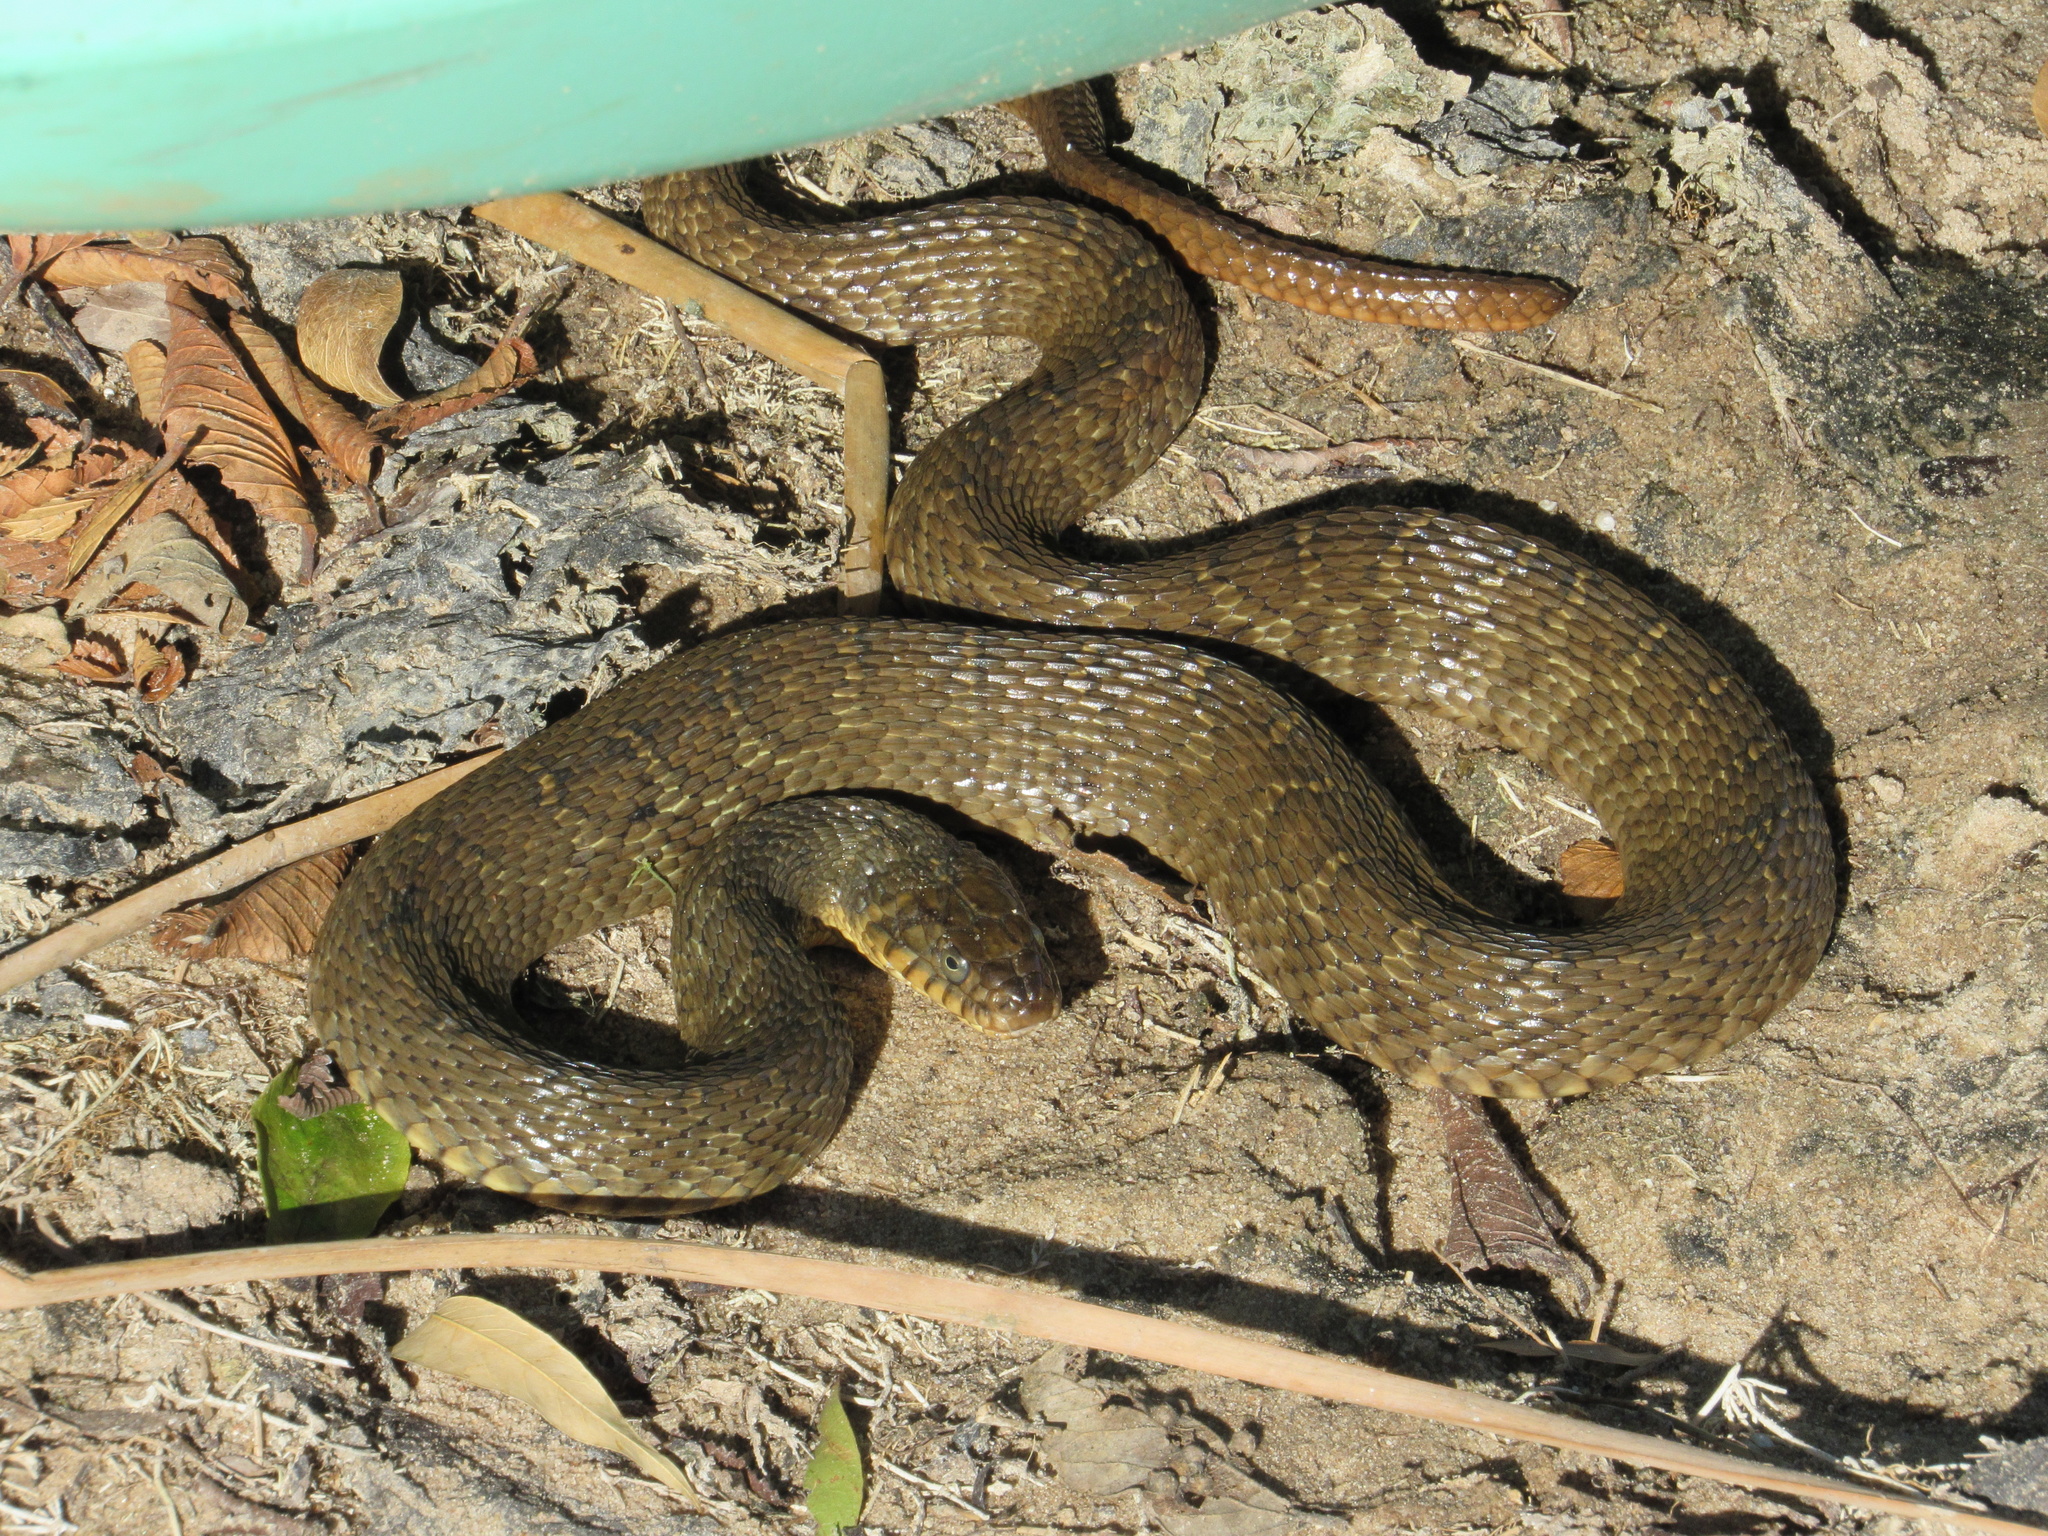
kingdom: Animalia
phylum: Chordata
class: Squamata
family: Colubridae
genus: Nerodia
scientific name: Nerodia erythrogaster
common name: Plainbelly water snake
